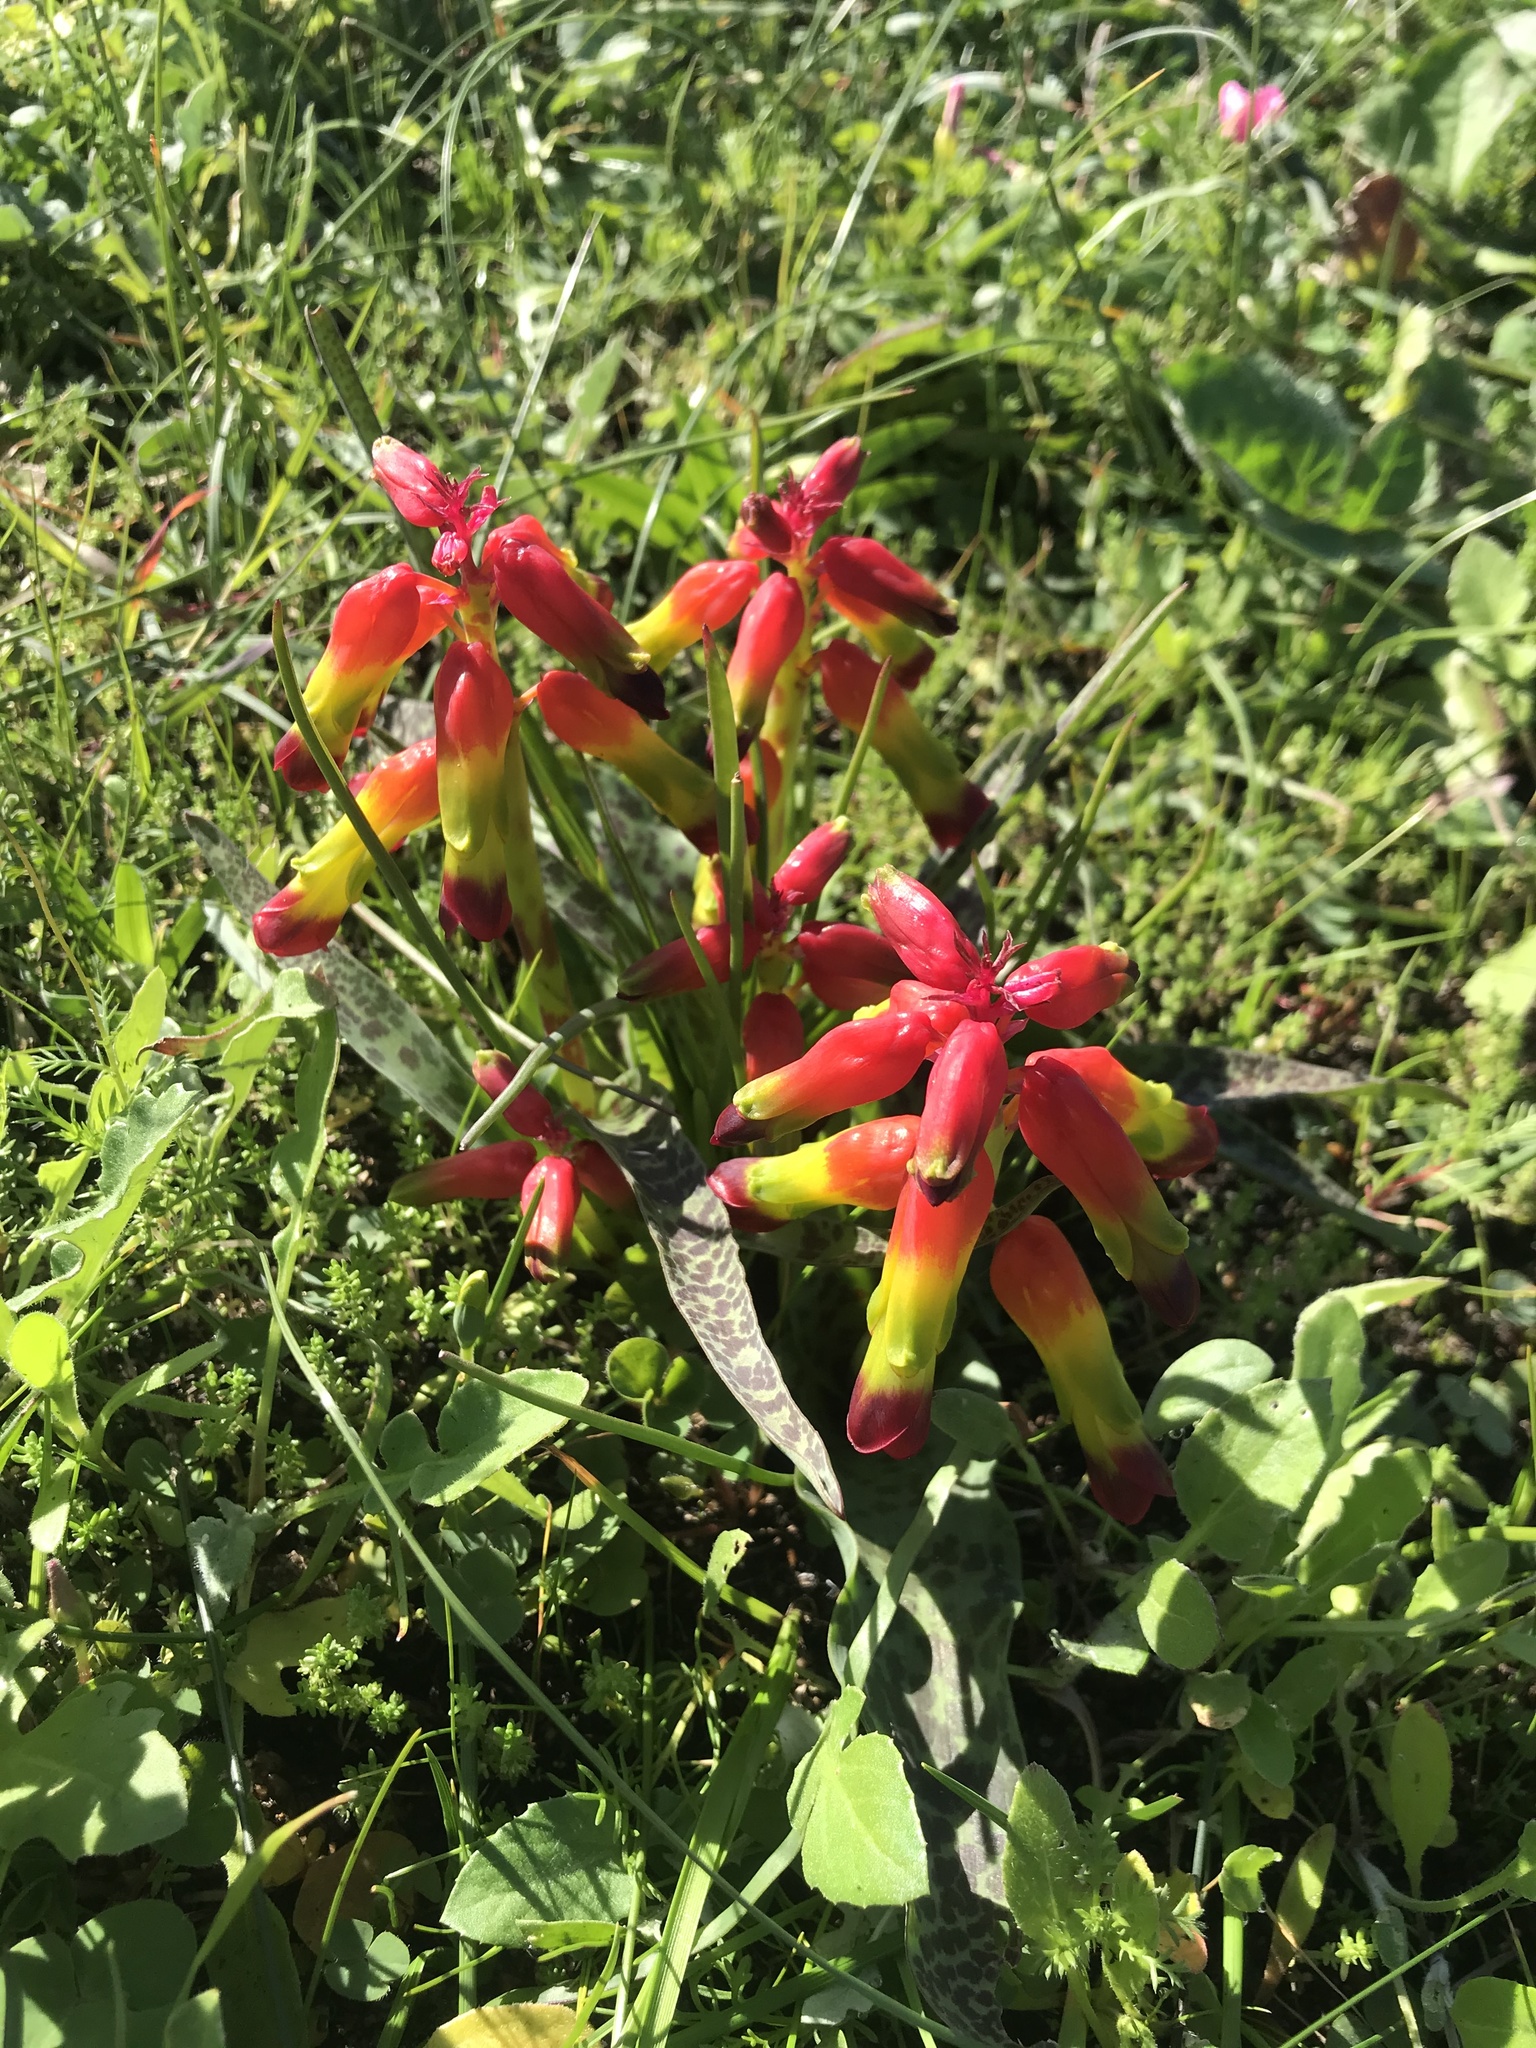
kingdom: Plantae
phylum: Tracheophyta
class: Liliopsida
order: Asparagales
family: Asparagaceae
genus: Lachenalia
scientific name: Lachenalia quadricolor
